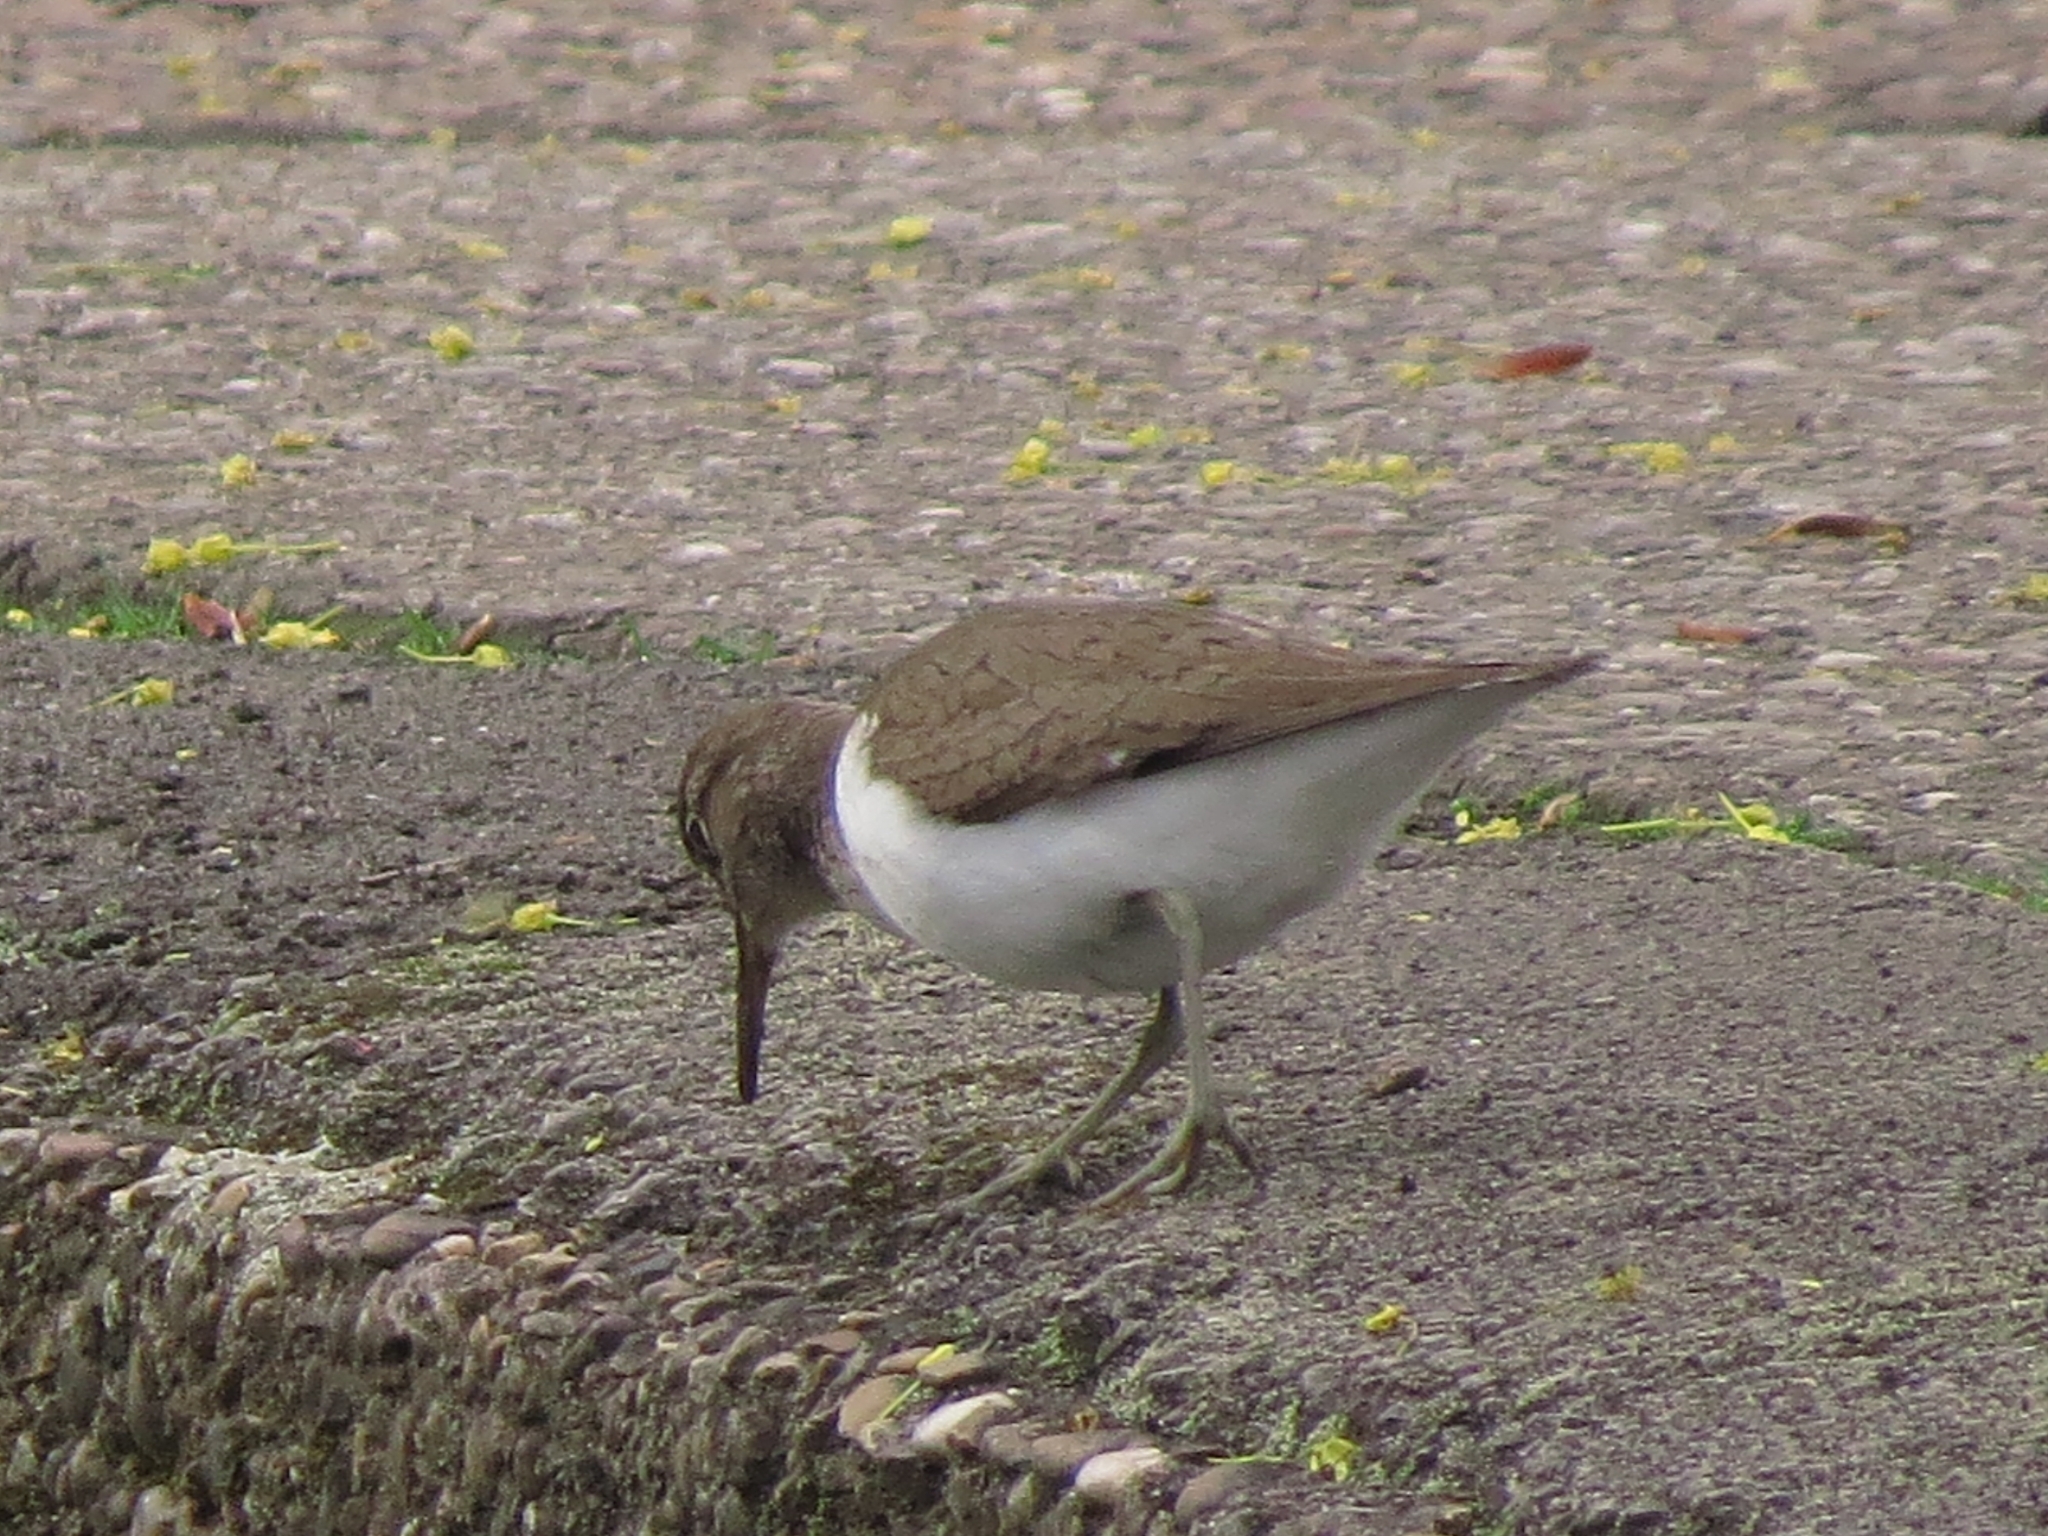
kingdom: Animalia
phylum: Chordata
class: Aves
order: Charadriiformes
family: Scolopacidae
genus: Actitis
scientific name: Actitis hypoleucos
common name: Common sandpiper
